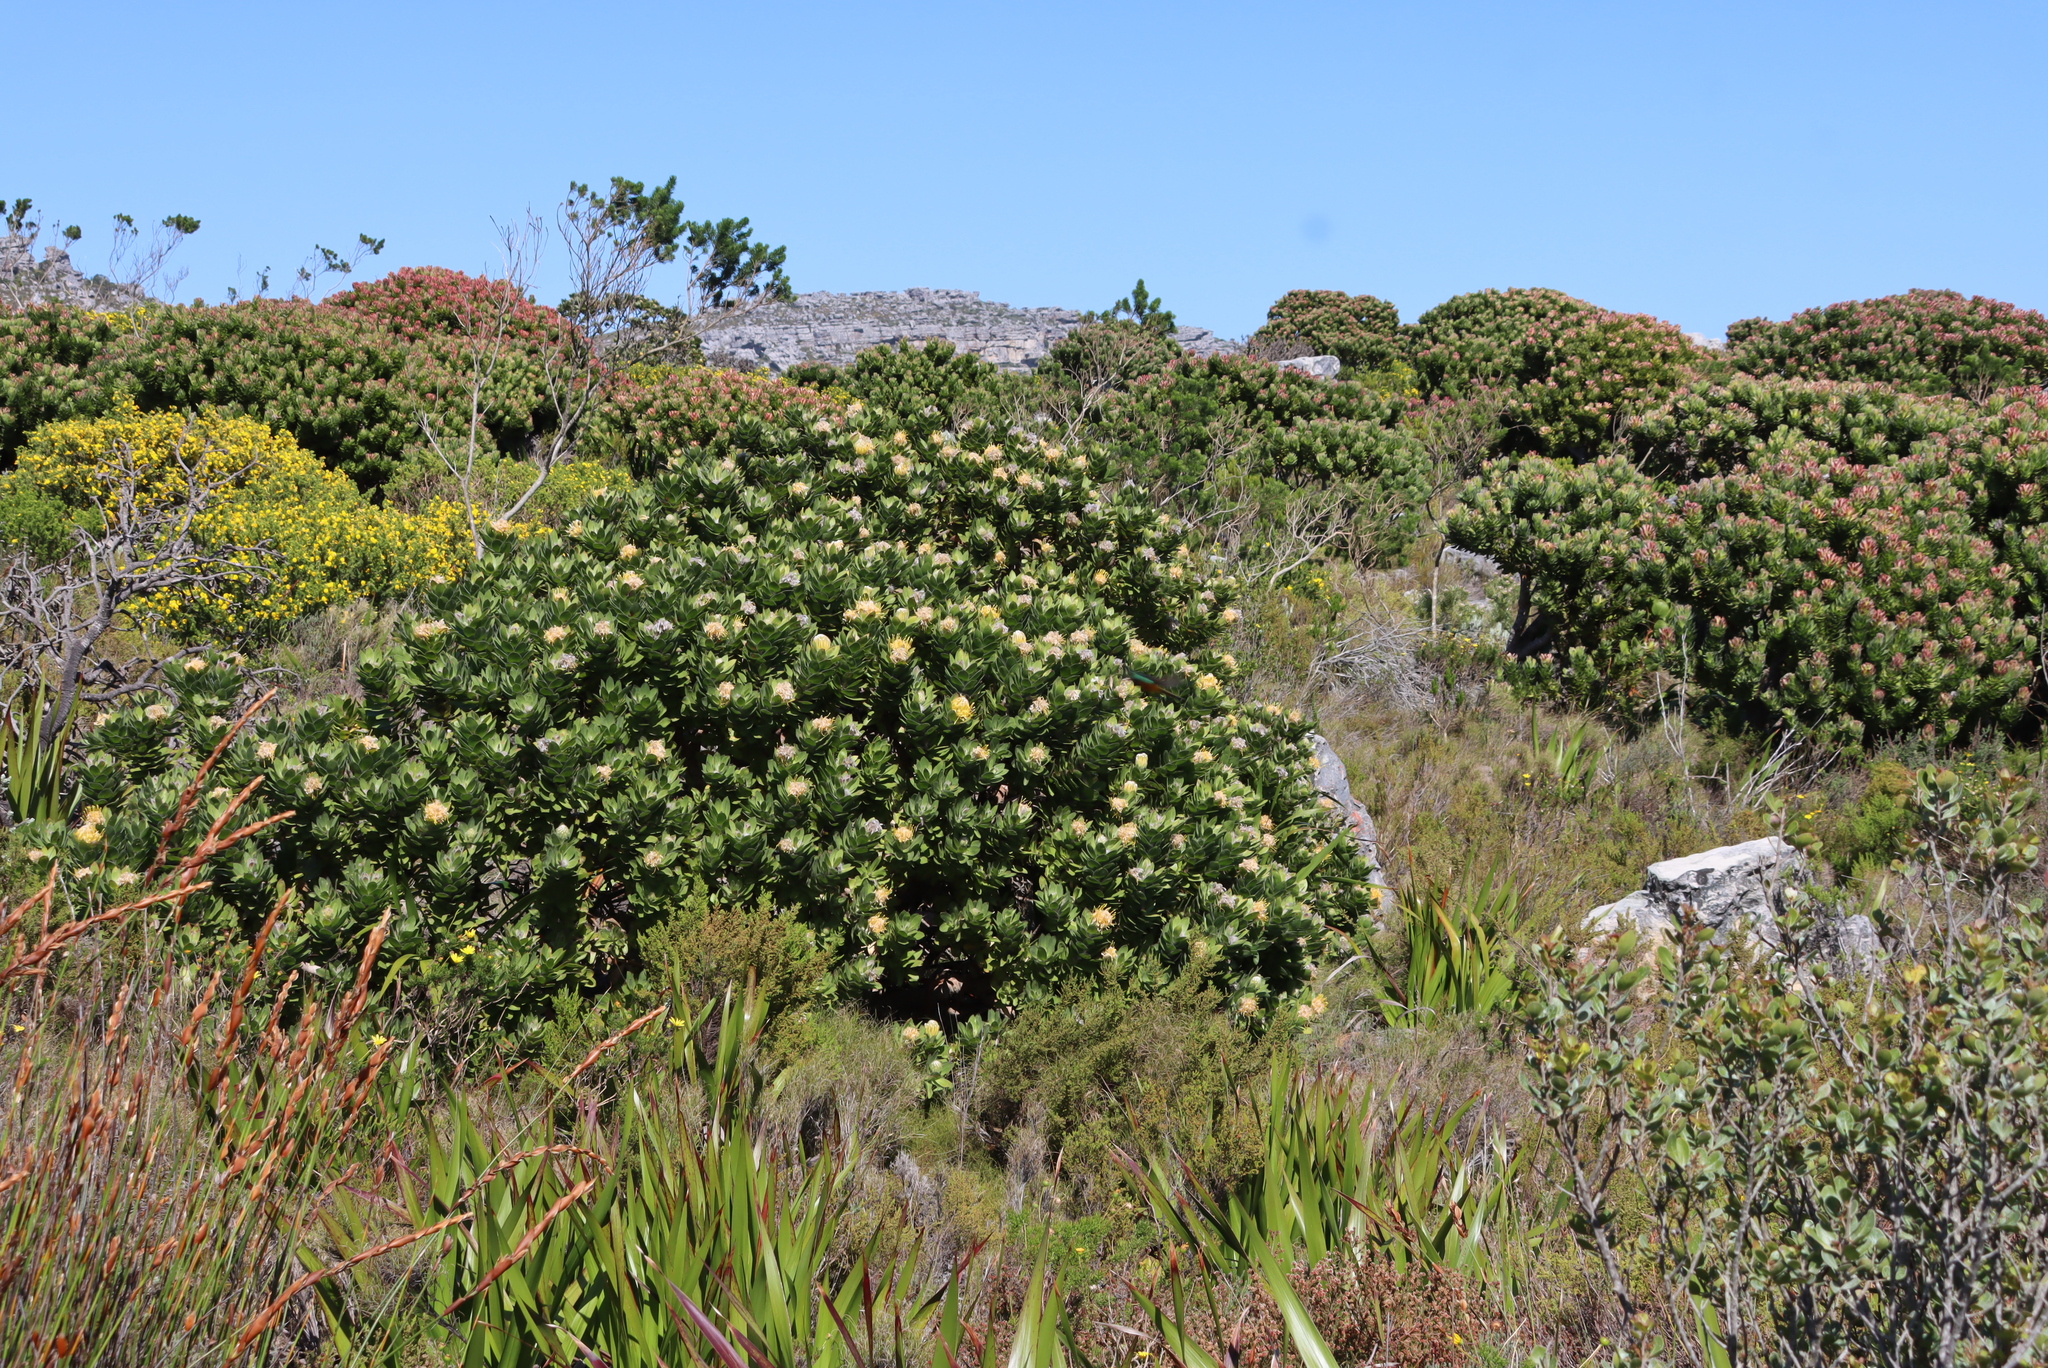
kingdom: Plantae
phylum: Tracheophyta
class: Magnoliopsida
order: Proteales
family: Proteaceae
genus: Leucospermum
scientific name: Leucospermum conocarpodendron
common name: Tree pincushion
